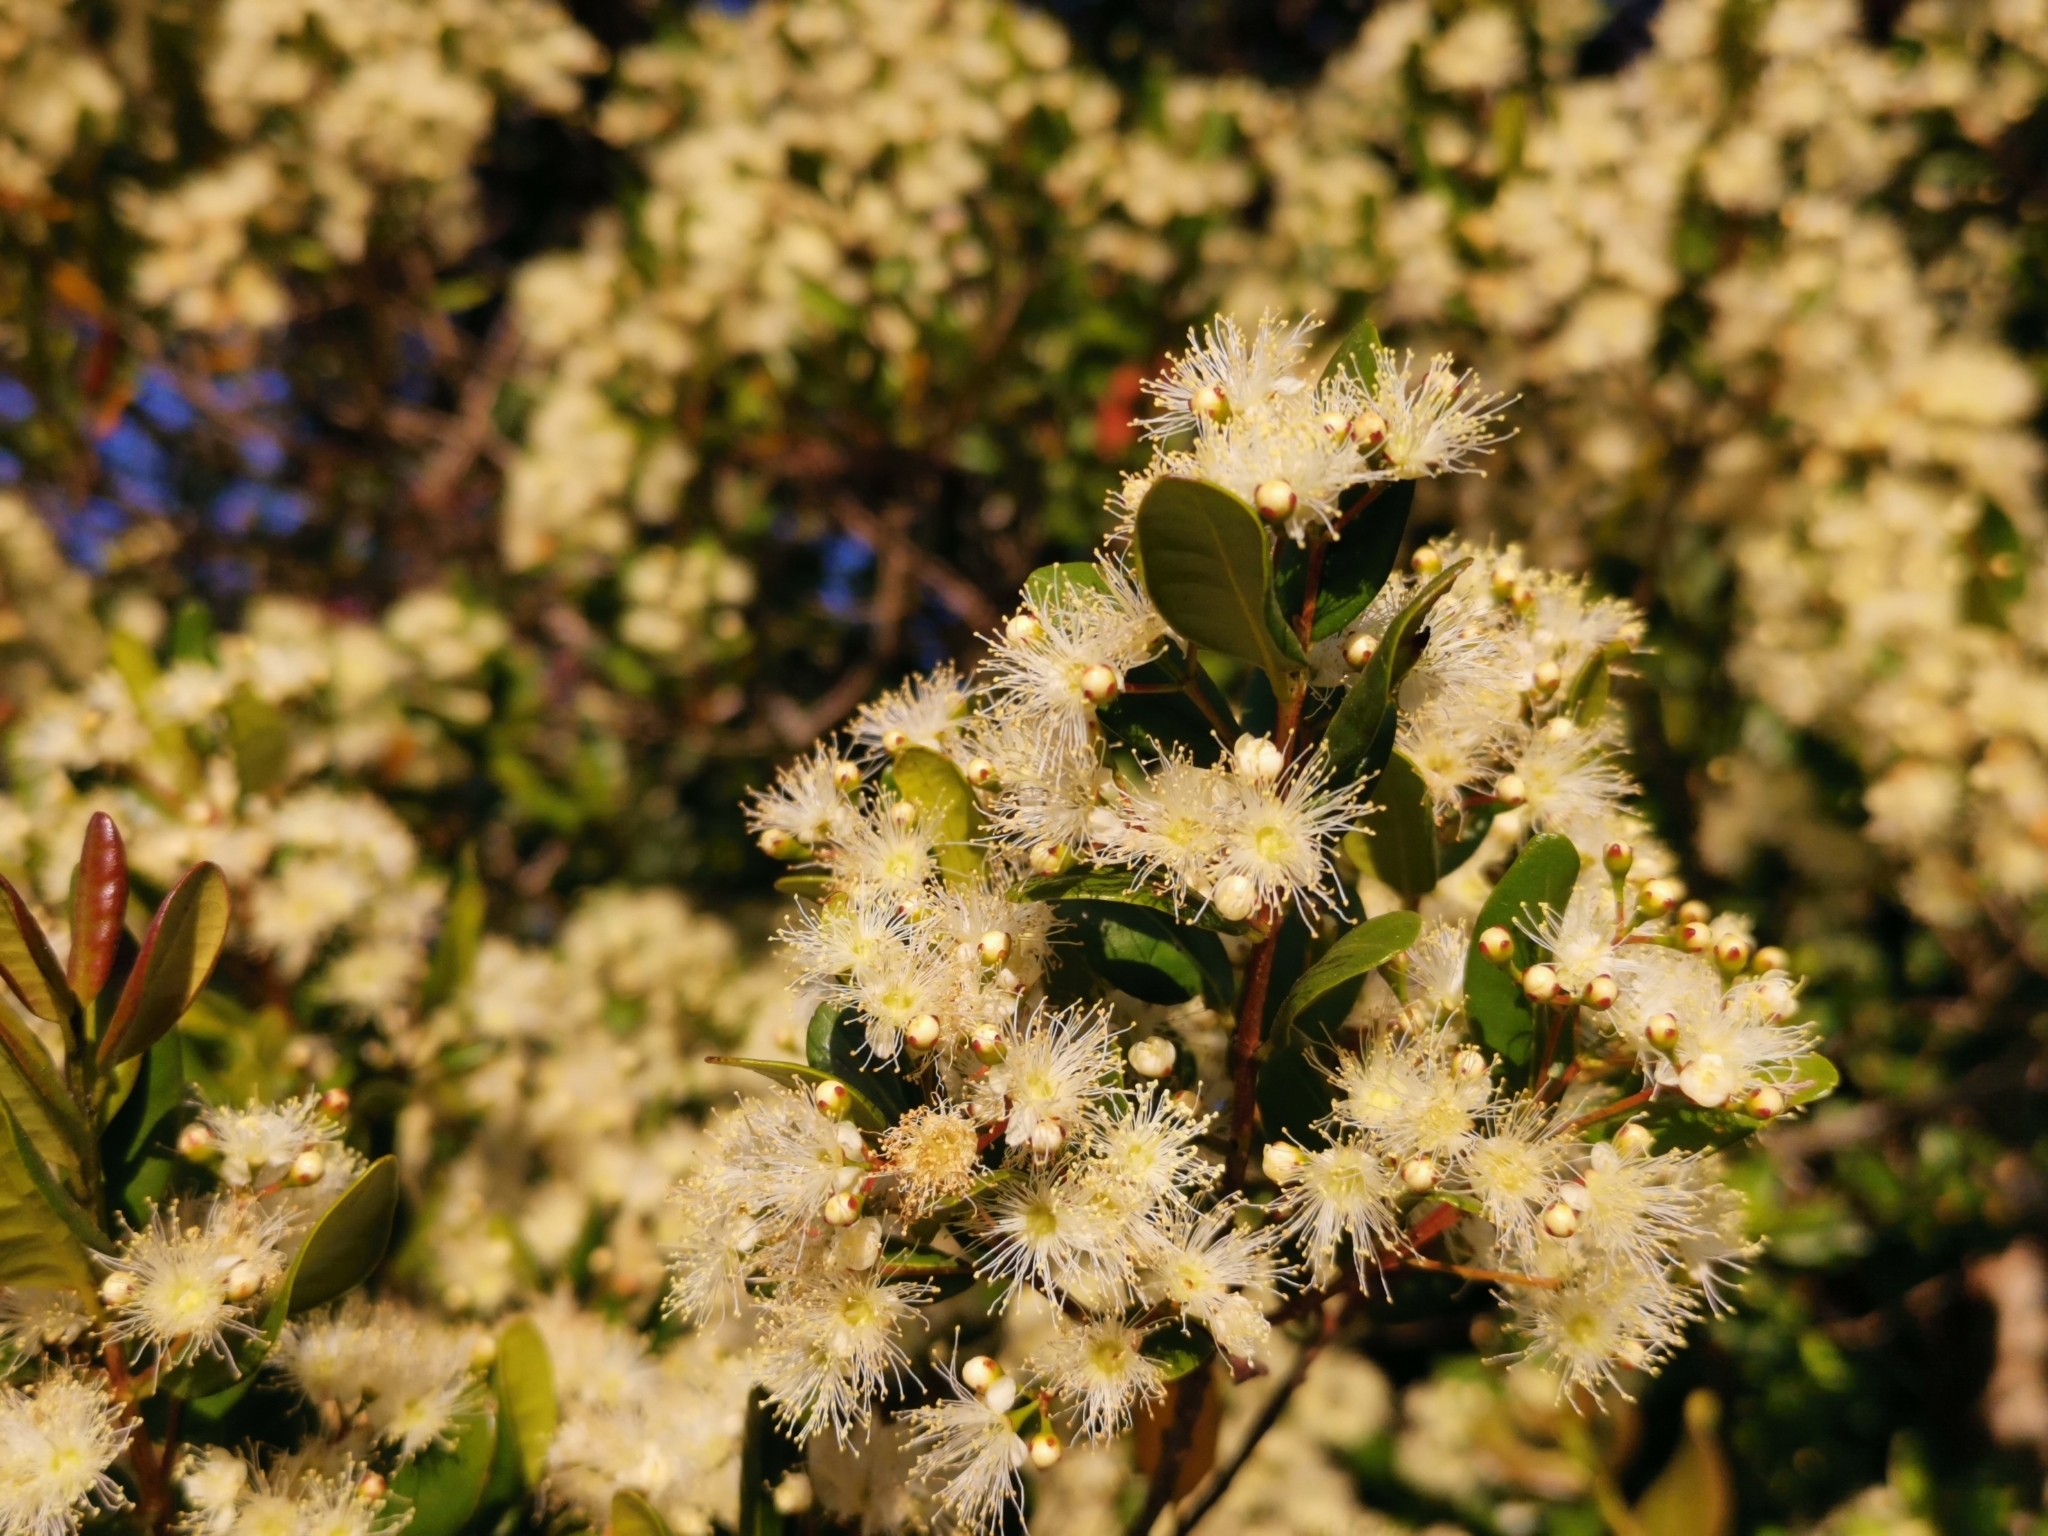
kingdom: Plantae
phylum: Tracheophyta
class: Magnoliopsida
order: Myrtales
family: Myrtaceae
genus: Blepharocalyx
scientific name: Blepharocalyx cruckshanksii
